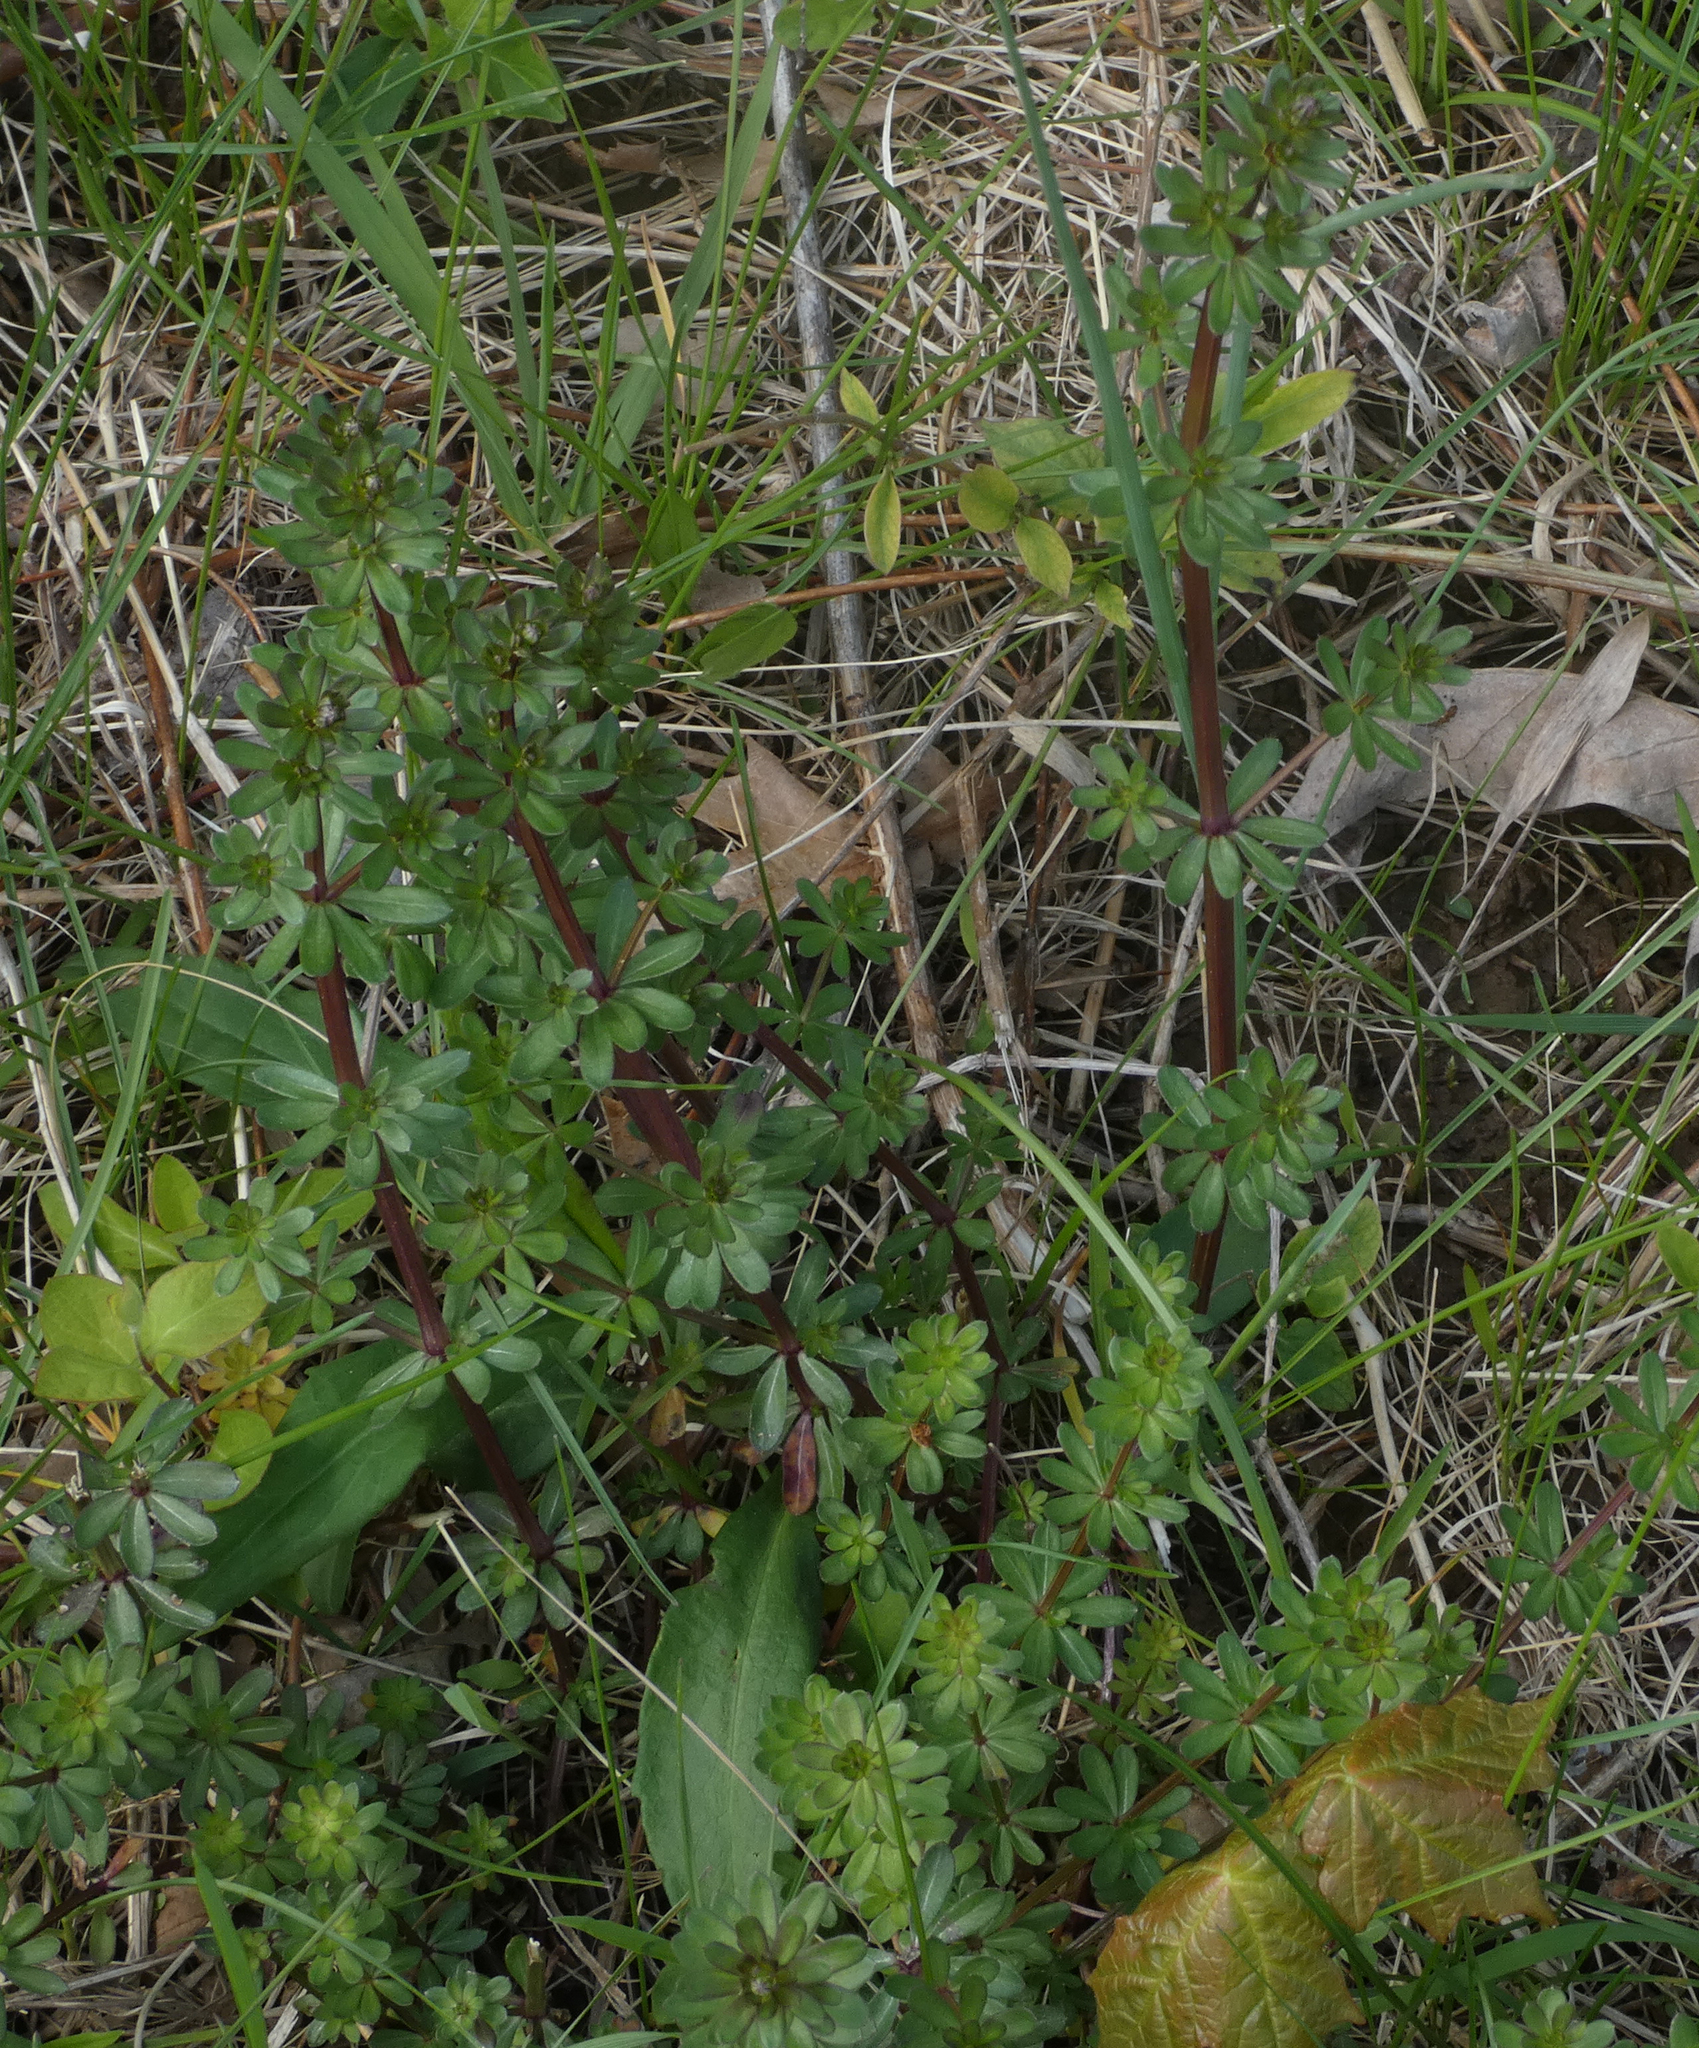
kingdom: Plantae
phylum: Tracheophyta
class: Magnoliopsida
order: Gentianales
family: Rubiaceae
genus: Galium
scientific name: Galium mollugo
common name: Hedge bedstraw
